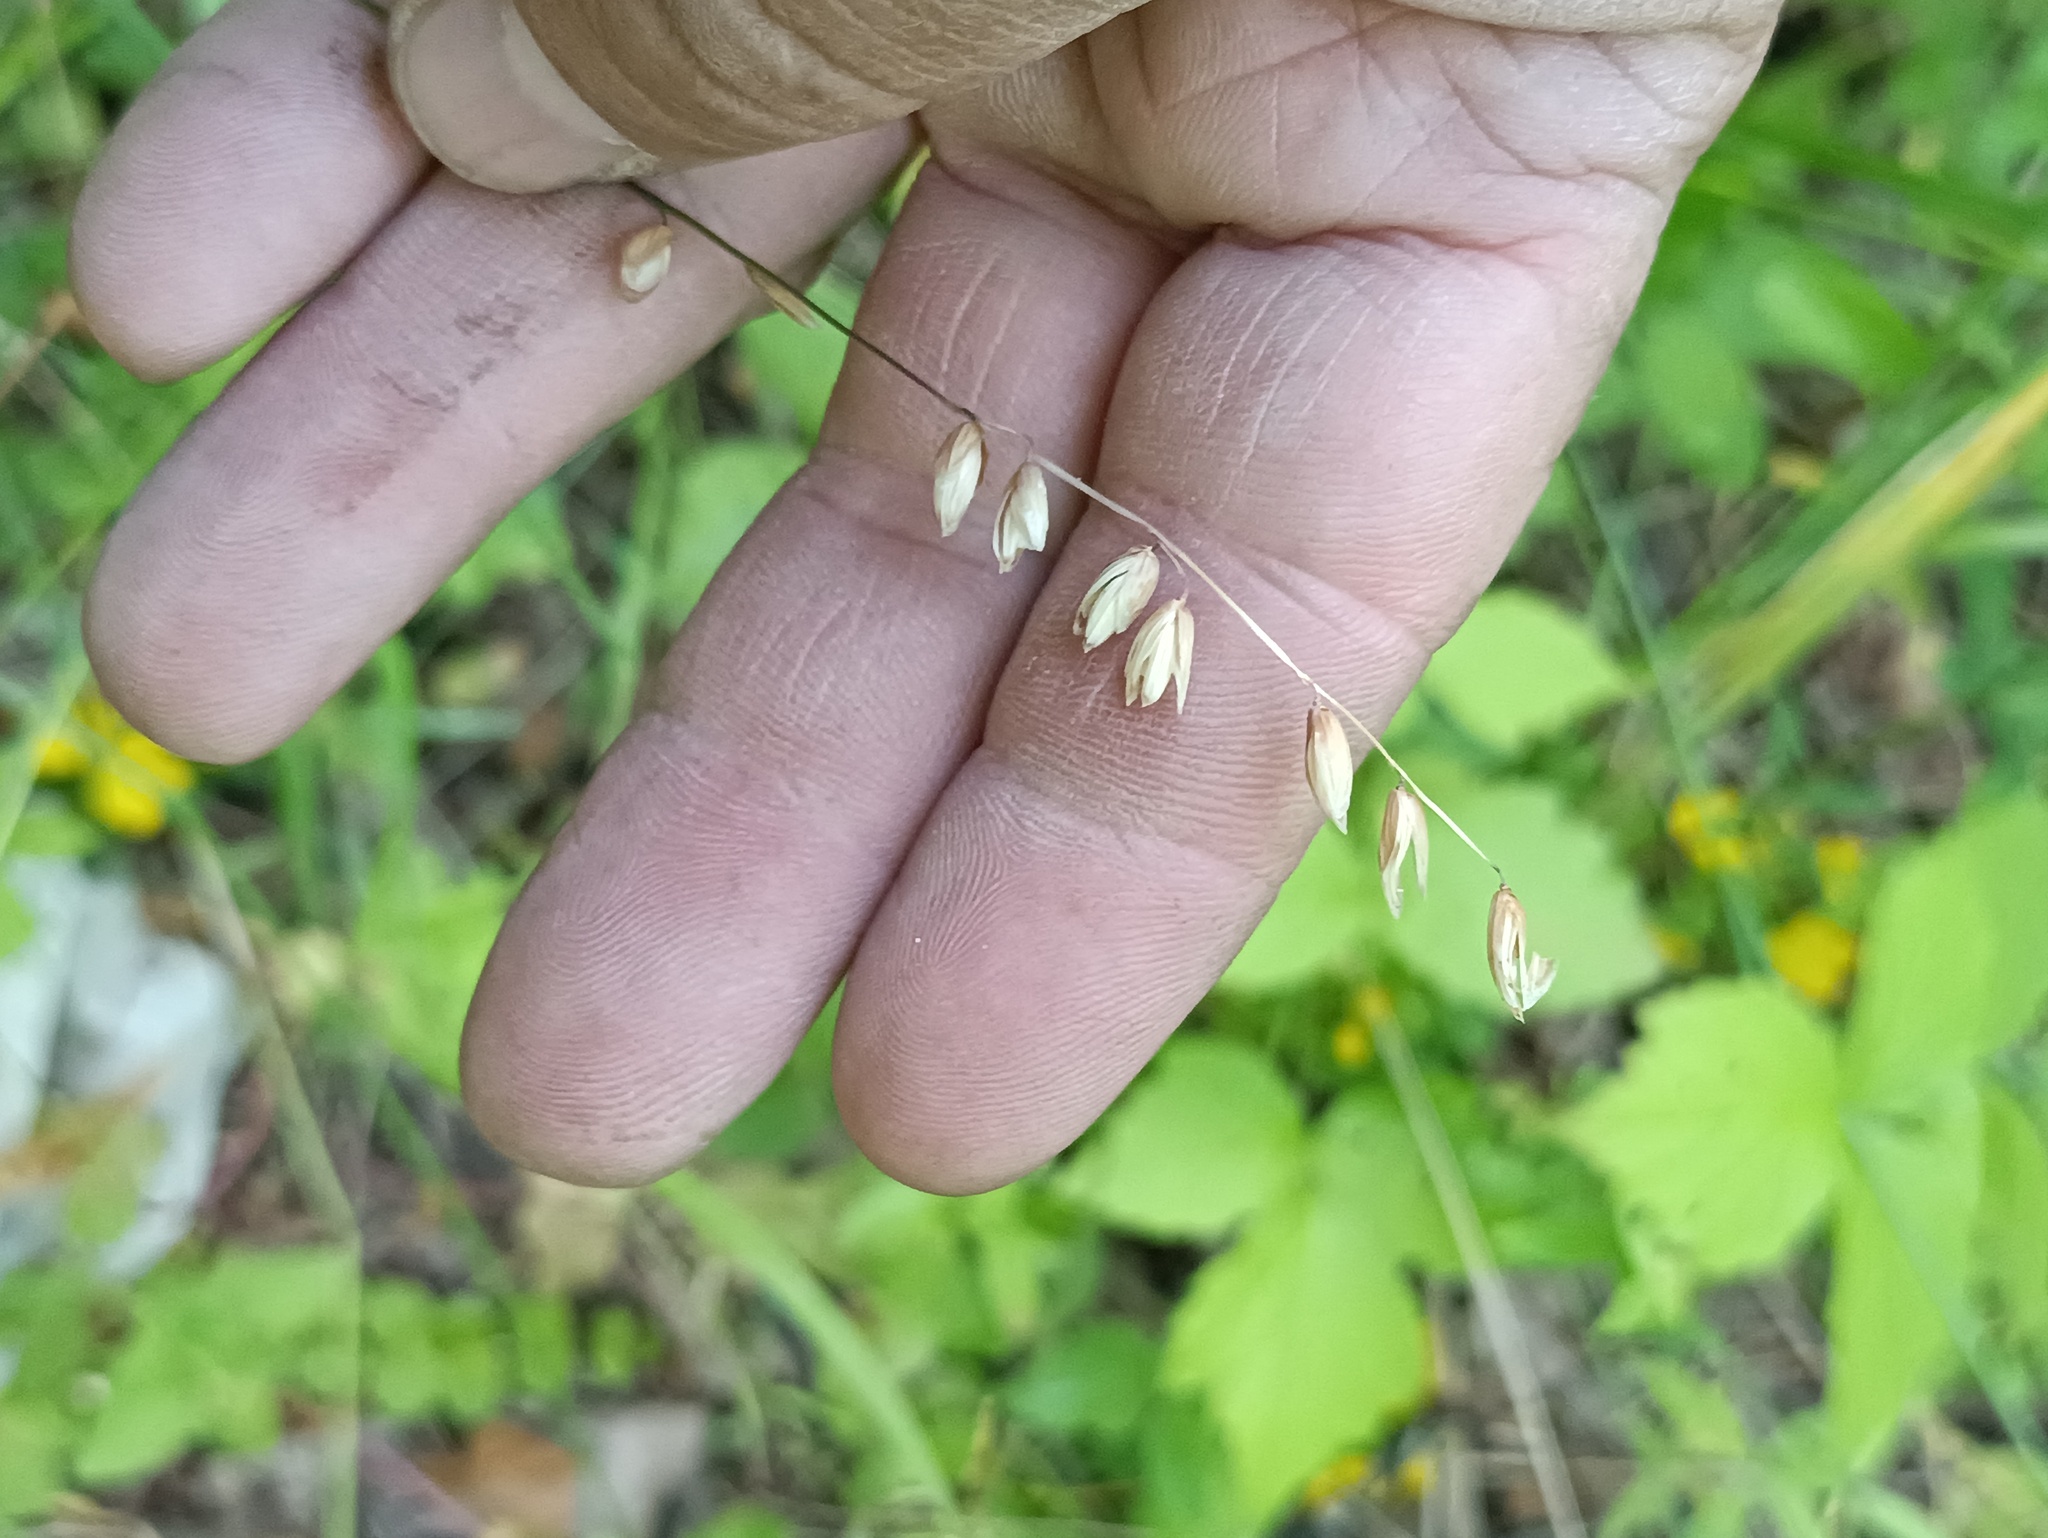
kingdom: Plantae
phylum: Tracheophyta
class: Liliopsida
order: Poales
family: Poaceae
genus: Melica
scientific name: Melica nutans
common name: Mountain melick
